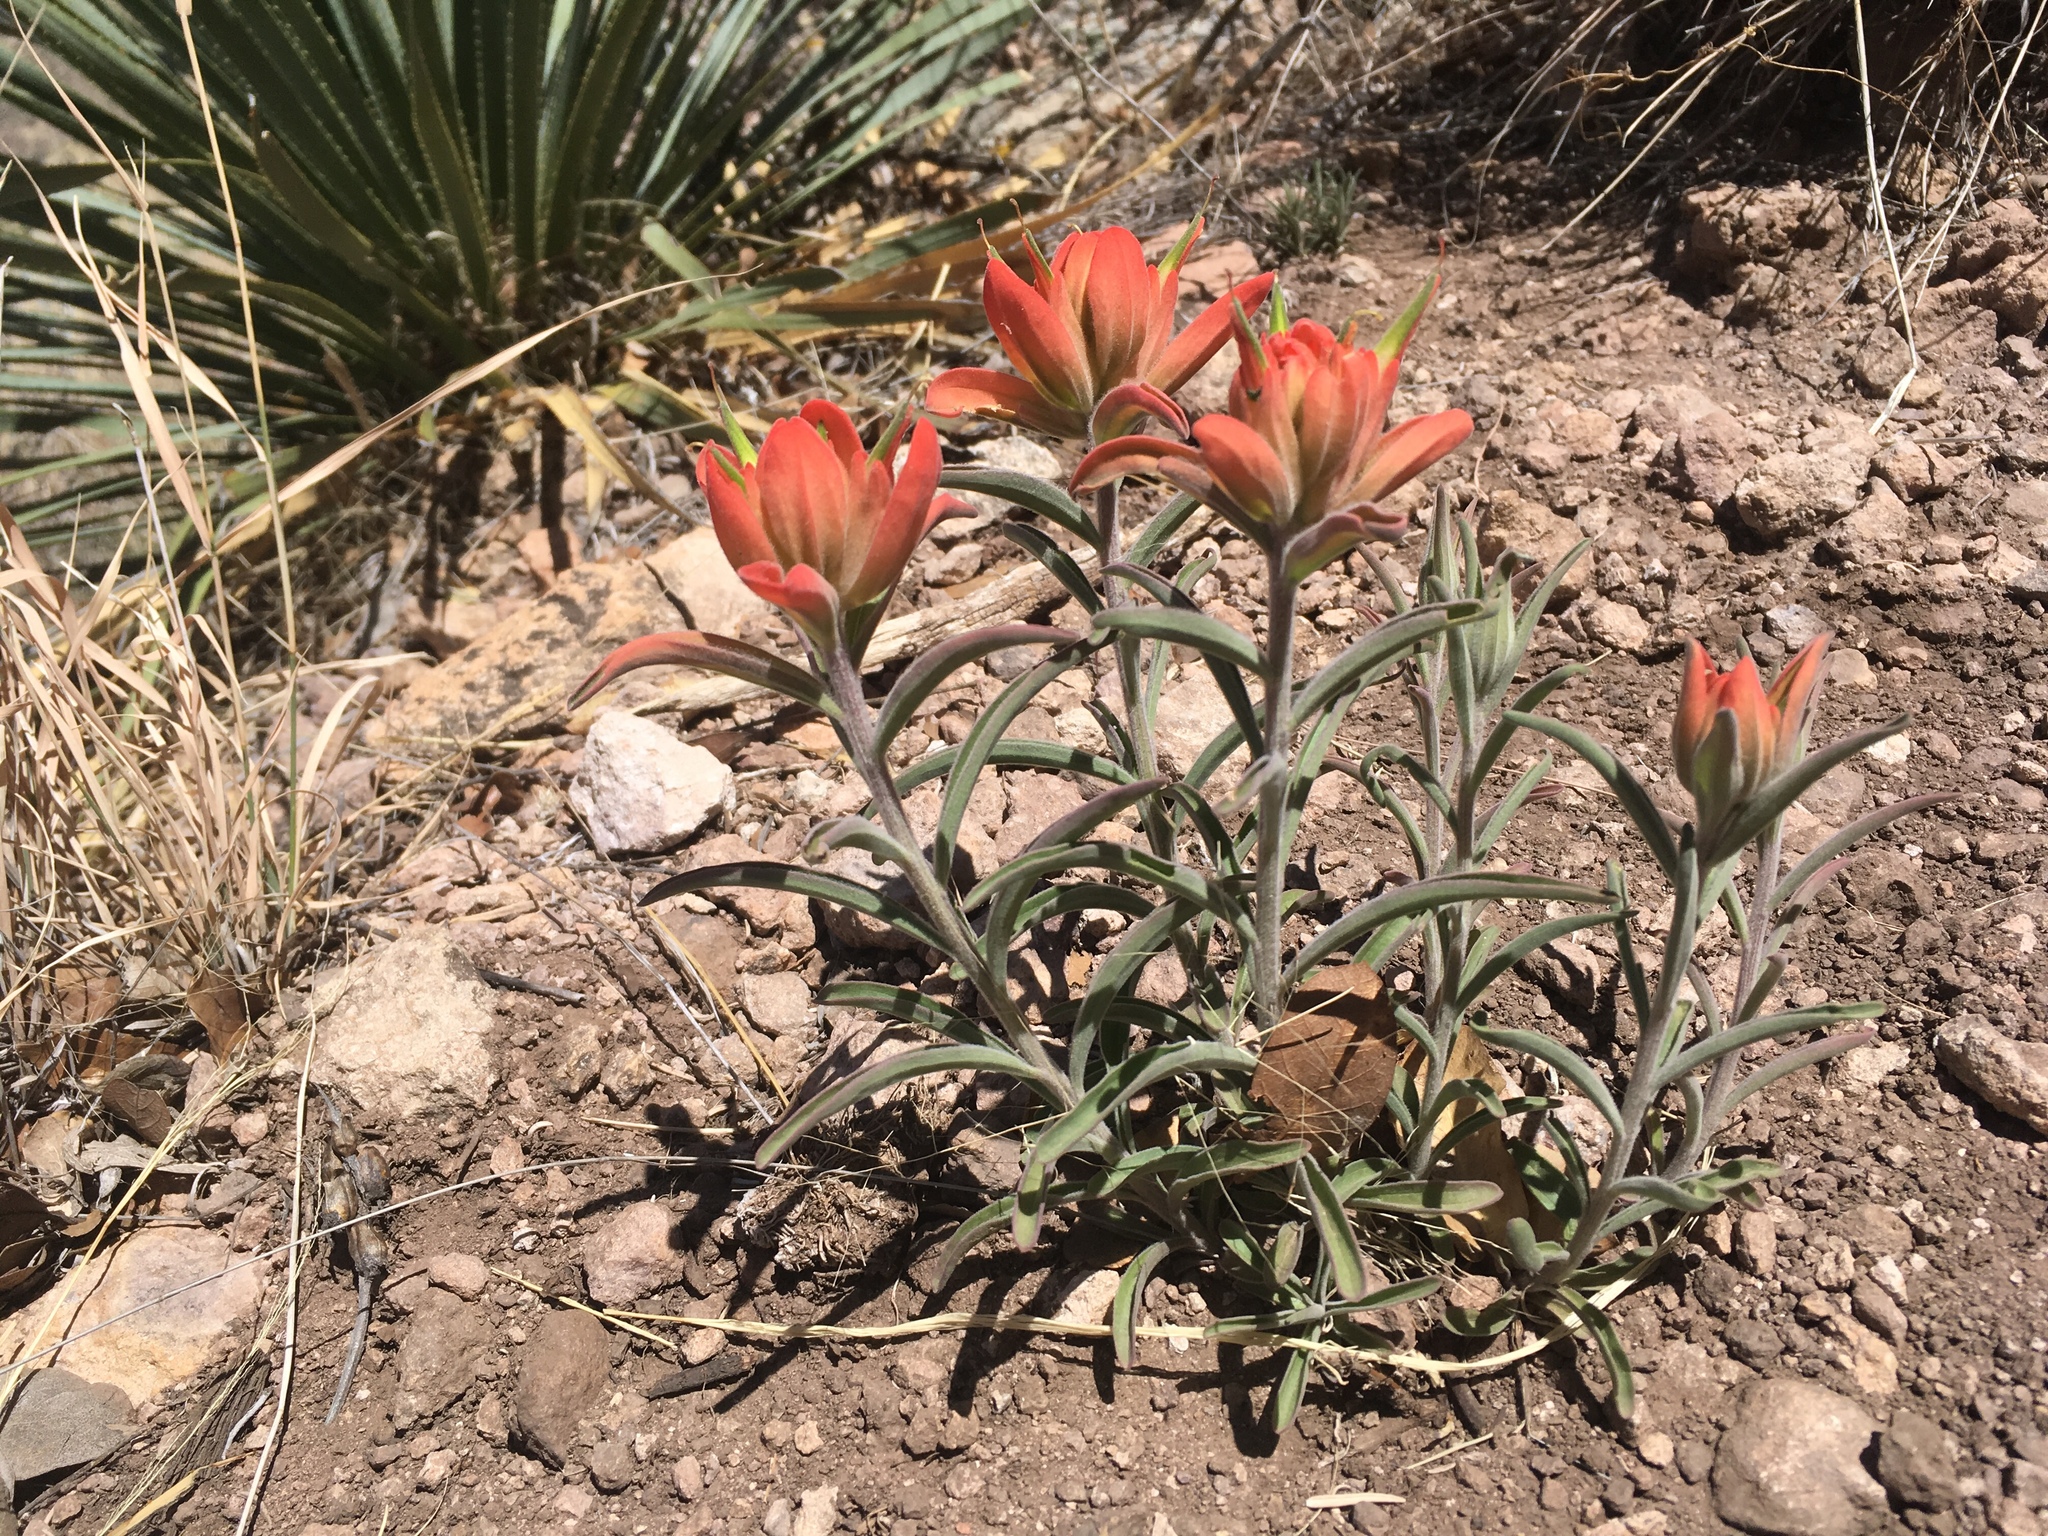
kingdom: Plantae
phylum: Tracheophyta
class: Magnoliopsida
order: Lamiales
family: Orobanchaceae
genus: Castilleja
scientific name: Castilleja integra
